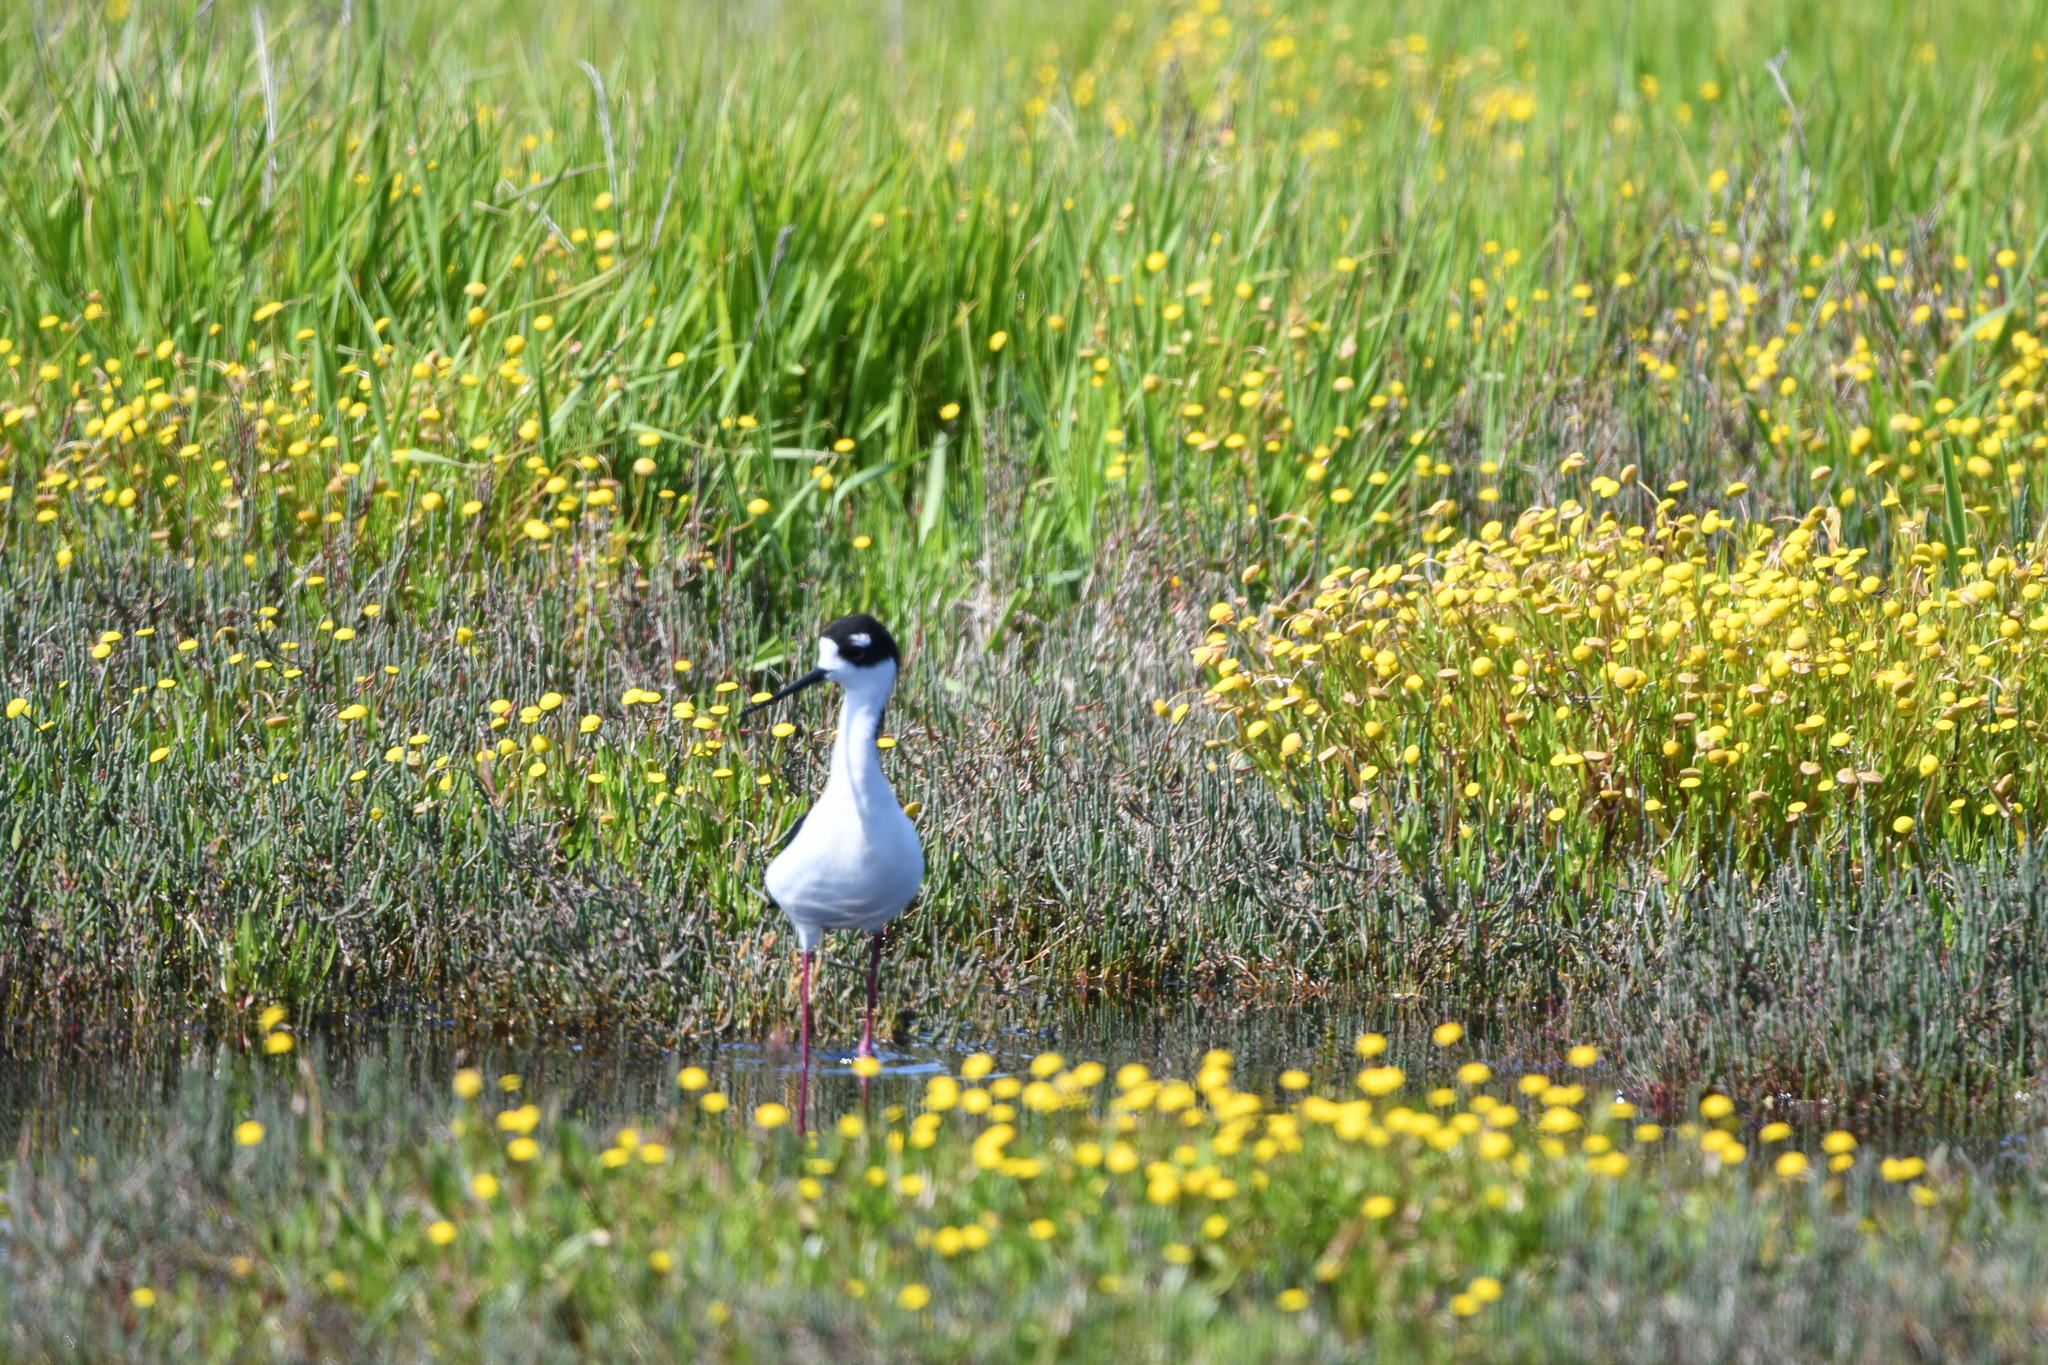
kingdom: Animalia
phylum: Chordata
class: Aves
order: Charadriiformes
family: Recurvirostridae
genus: Himantopus
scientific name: Himantopus mexicanus
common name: Black-necked stilt
